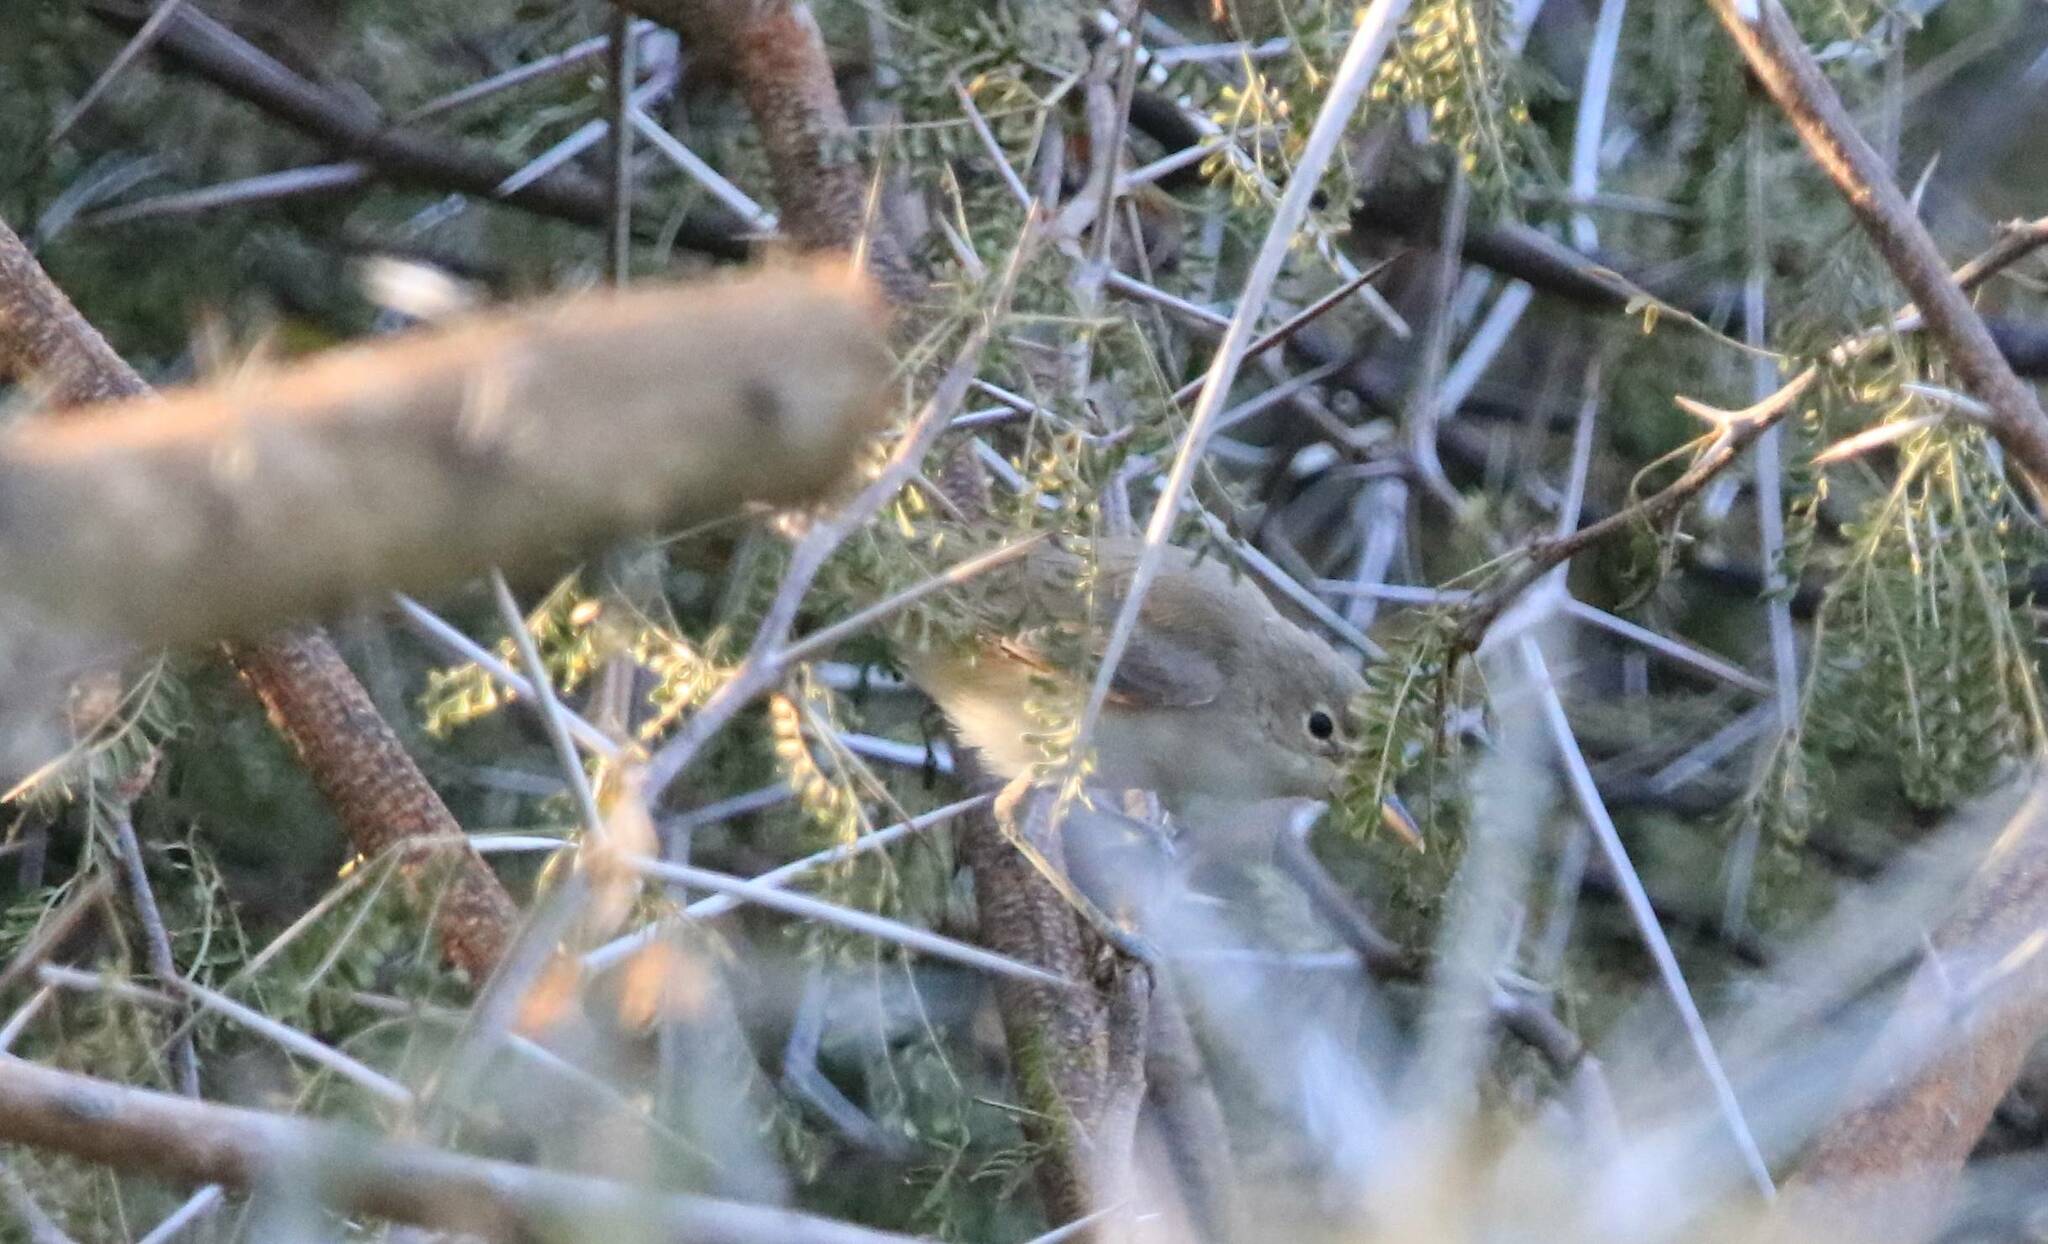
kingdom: Animalia
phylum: Chordata
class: Aves
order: Passeriformes
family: Phylloscopidae
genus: Phylloscopus
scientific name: Phylloscopus collybita
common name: Common chiffchaff
